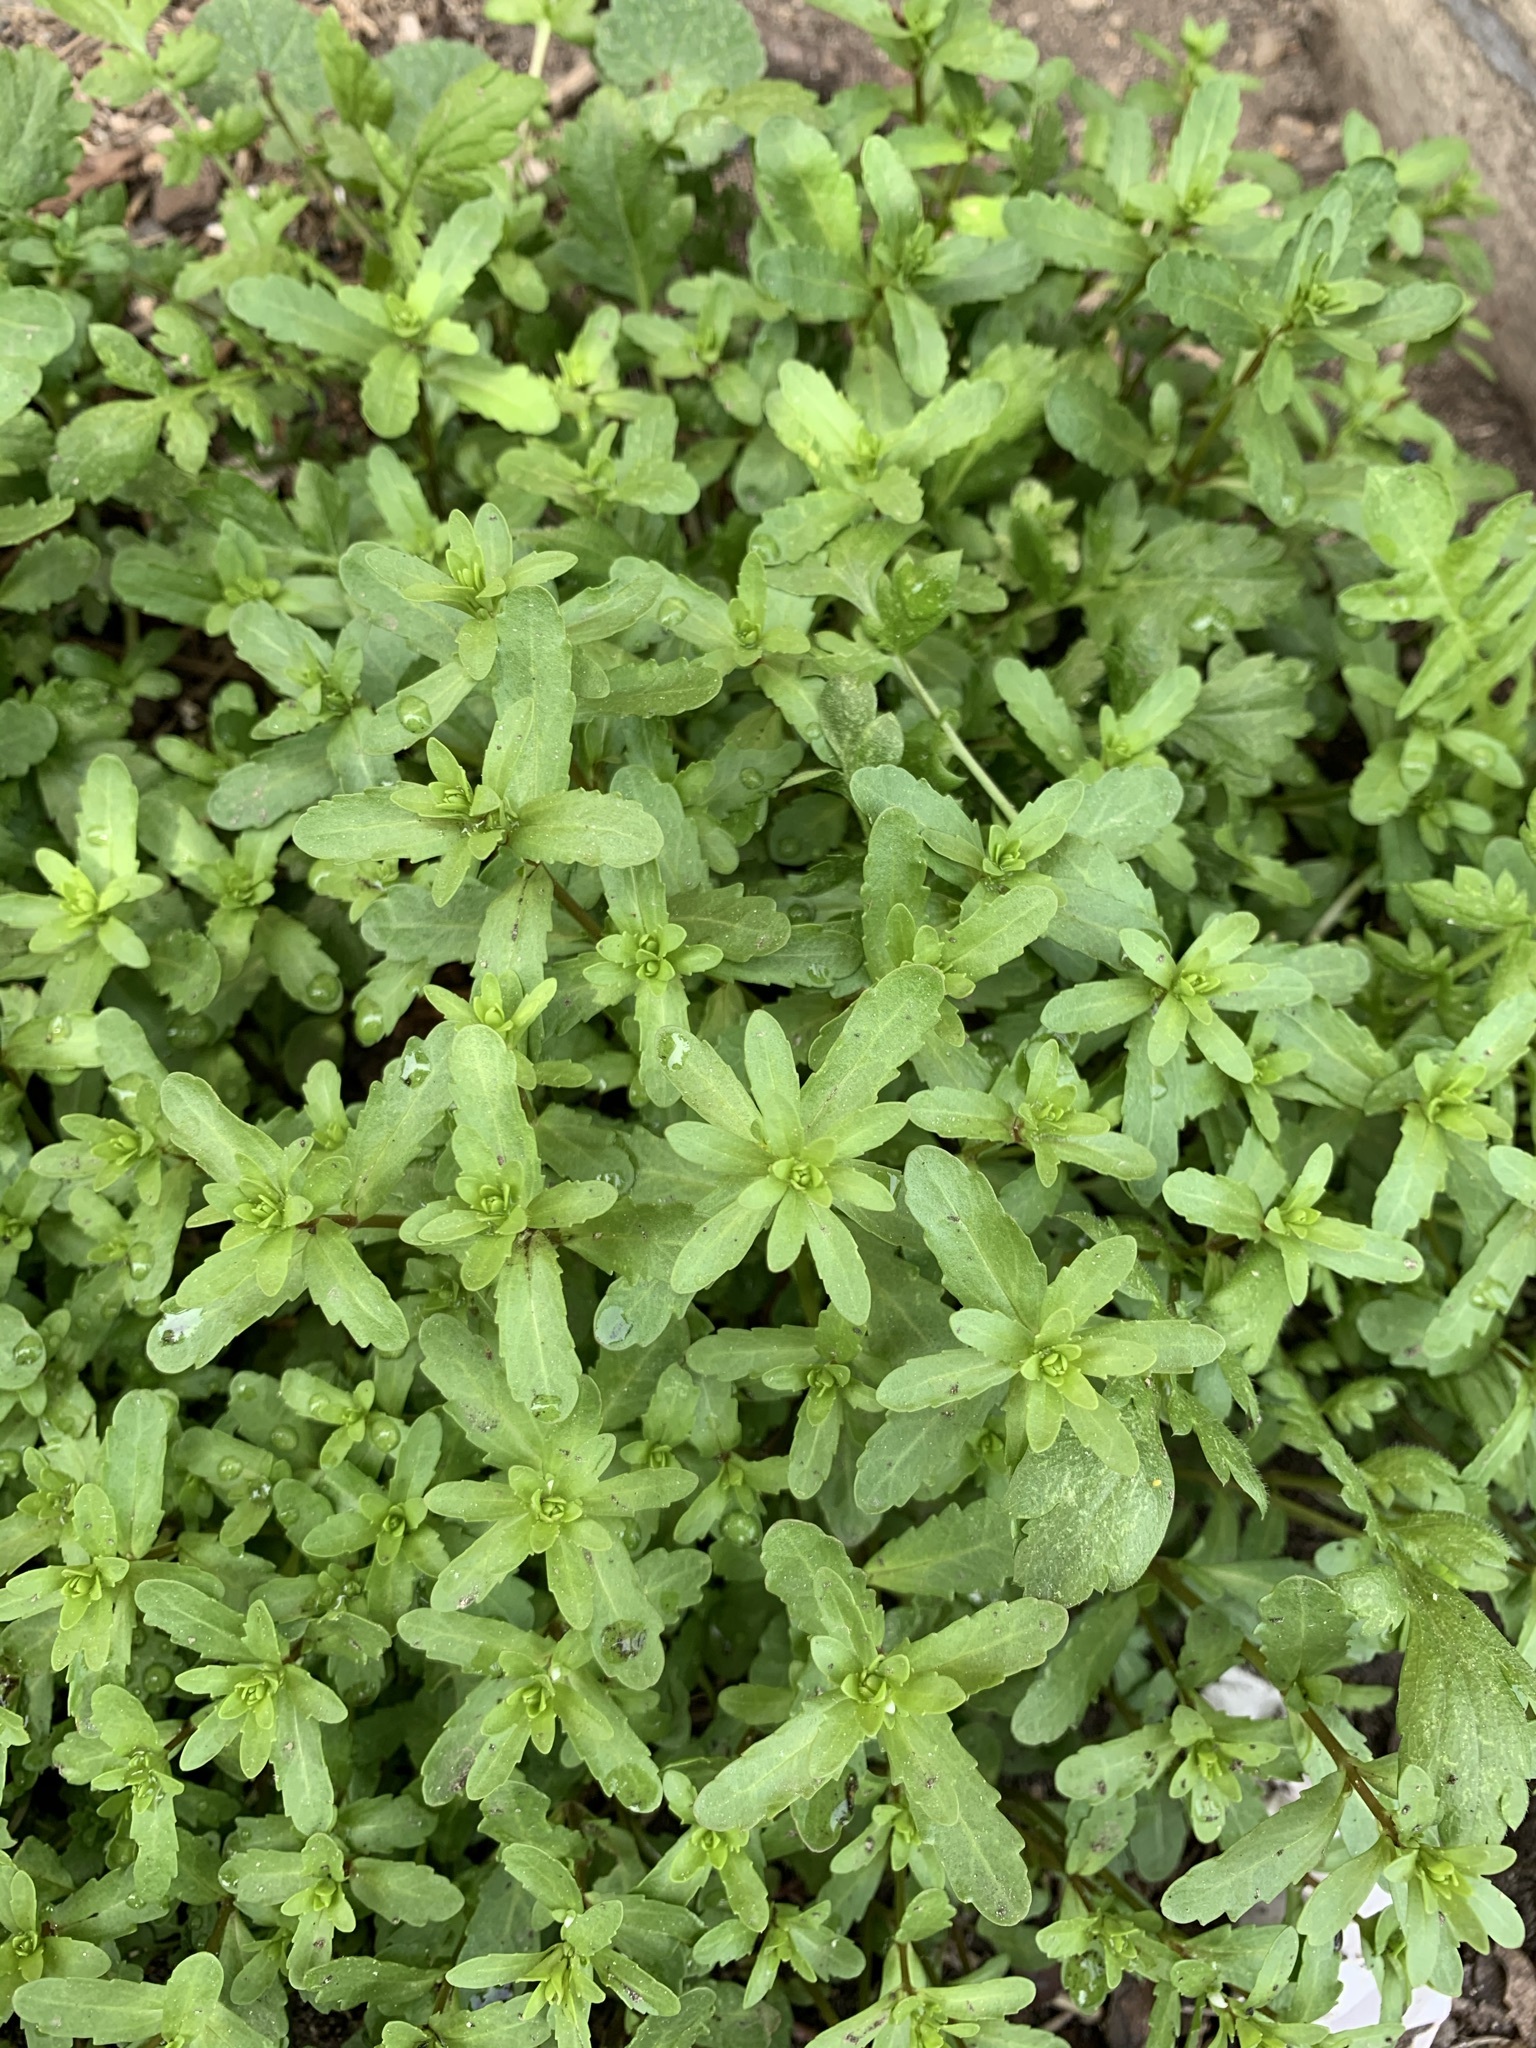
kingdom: Plantae
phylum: Tracheophyta
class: Magnoliopsida
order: Lamiales
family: Plantaginaceae
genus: Veronica
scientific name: Veronica peregrina
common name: Neckweed
